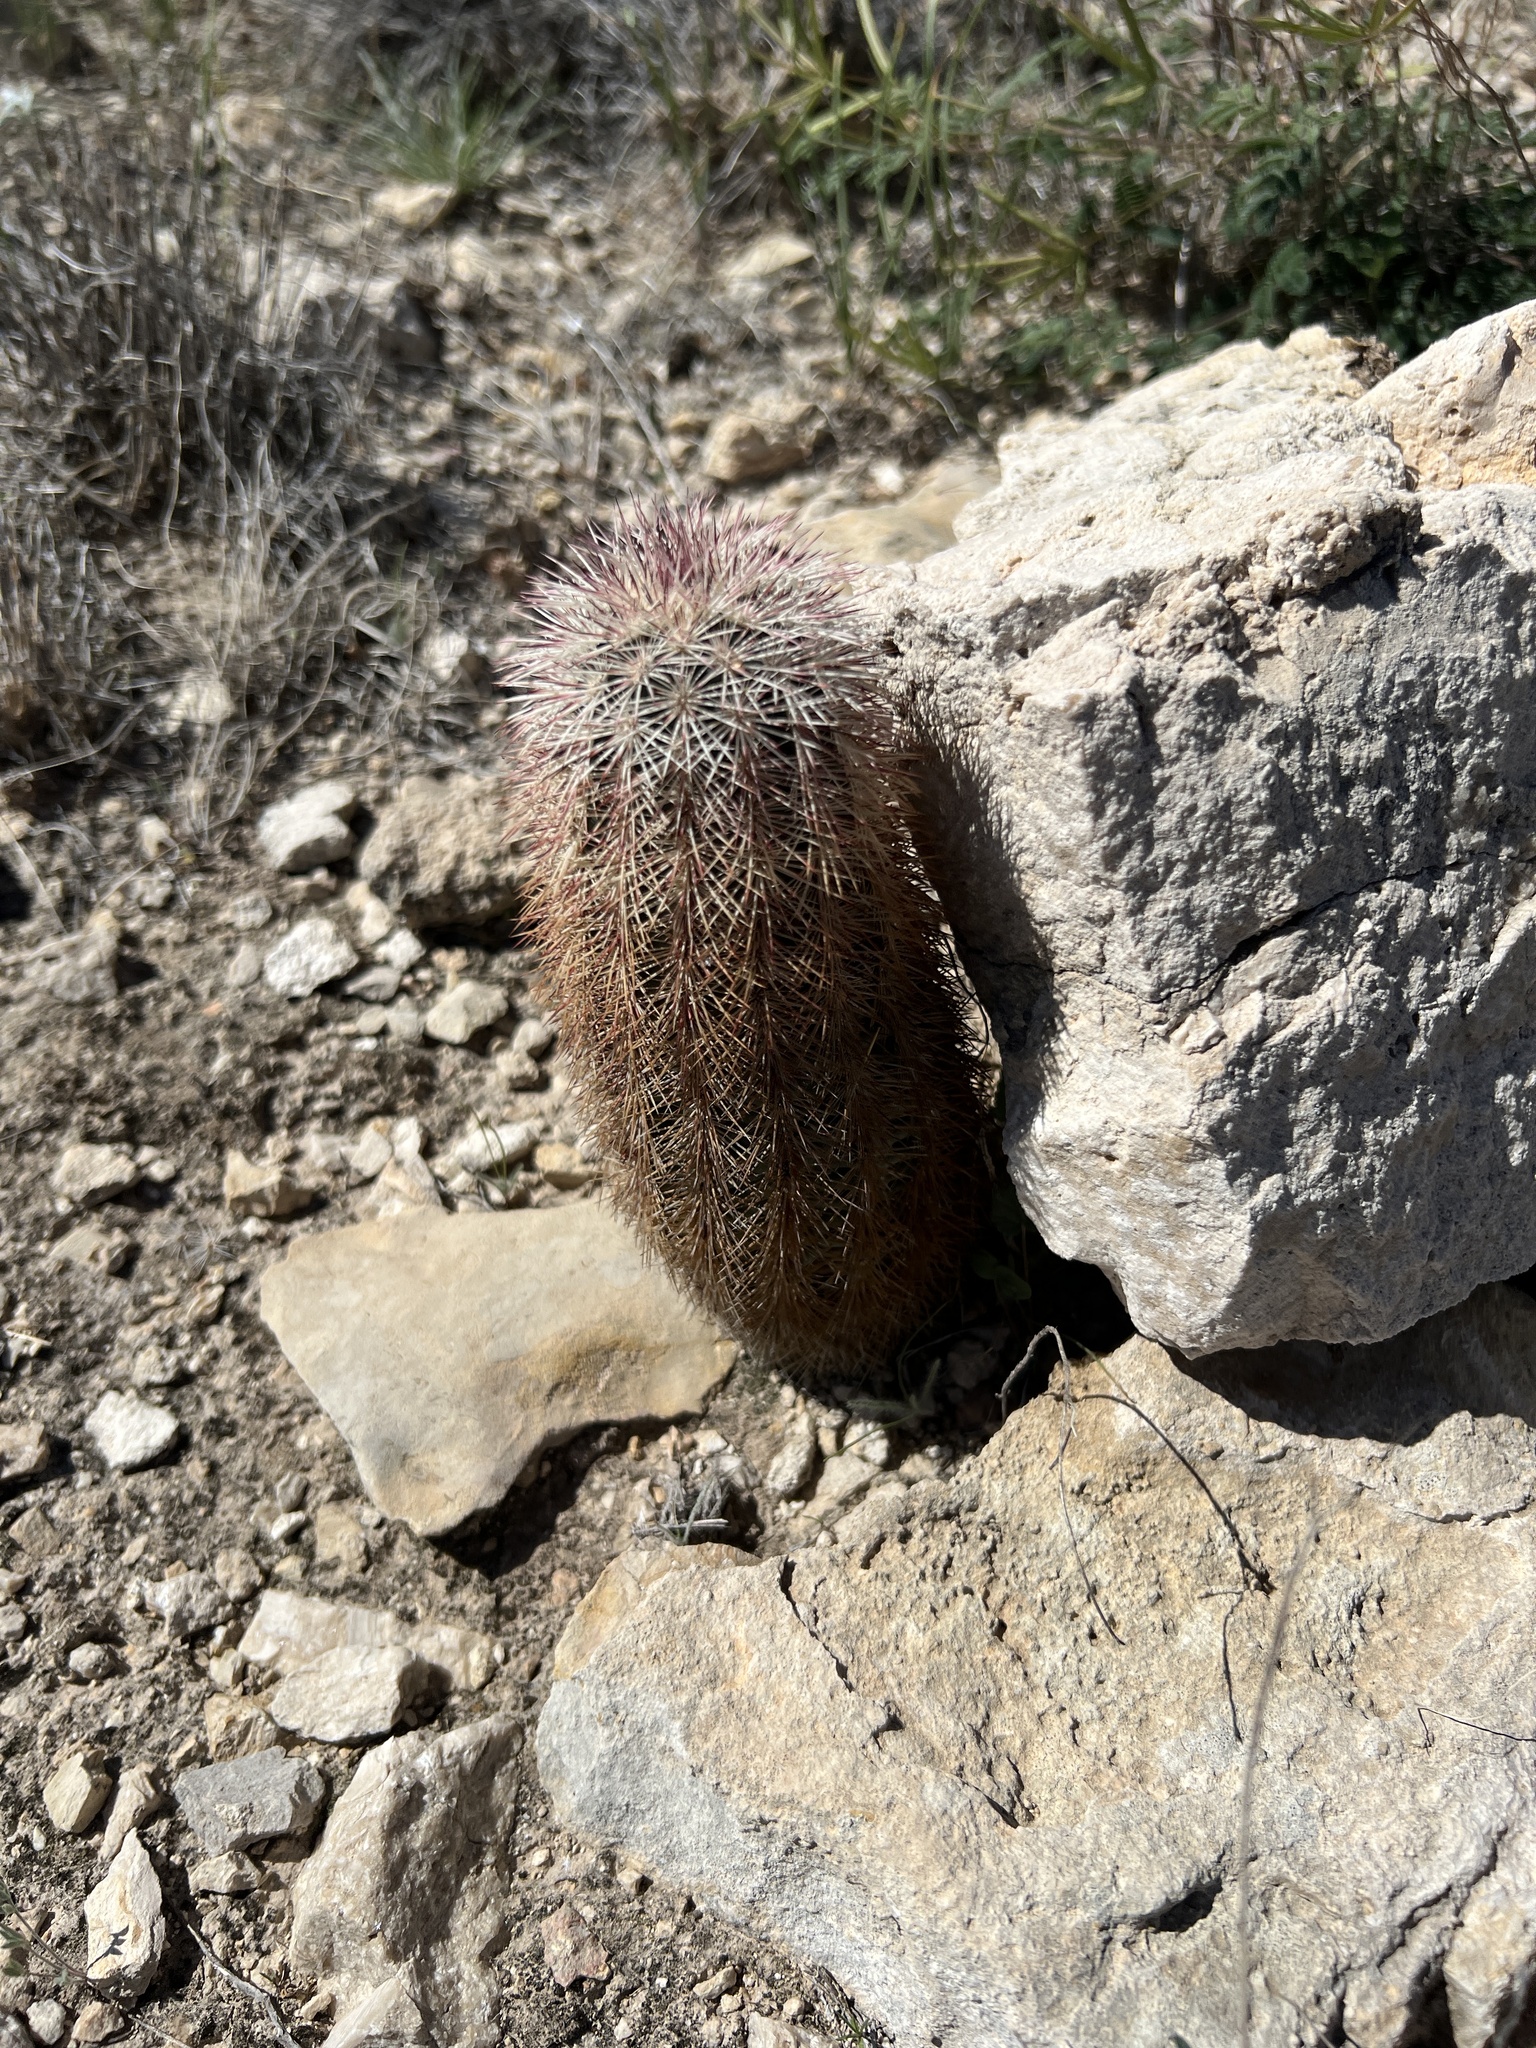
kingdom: Plantae
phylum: Tracheophyta
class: Magnoliopsida
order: Caryophyllales
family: Cactaceae
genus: Echinocereus
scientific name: Echinocereus dasyacanthus
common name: Spiny hedgehog cactus
